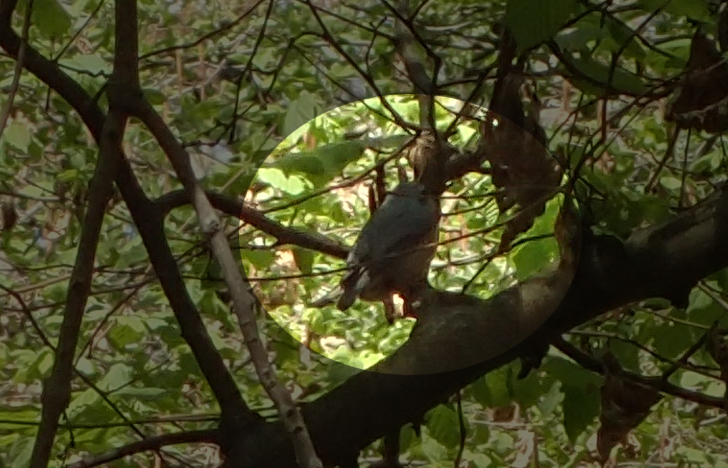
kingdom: Animalia
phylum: Chordata
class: Aves
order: Passeriformes
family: Sittidae
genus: Sitta
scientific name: Sitta europaea
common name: Eurasian nuthatch
